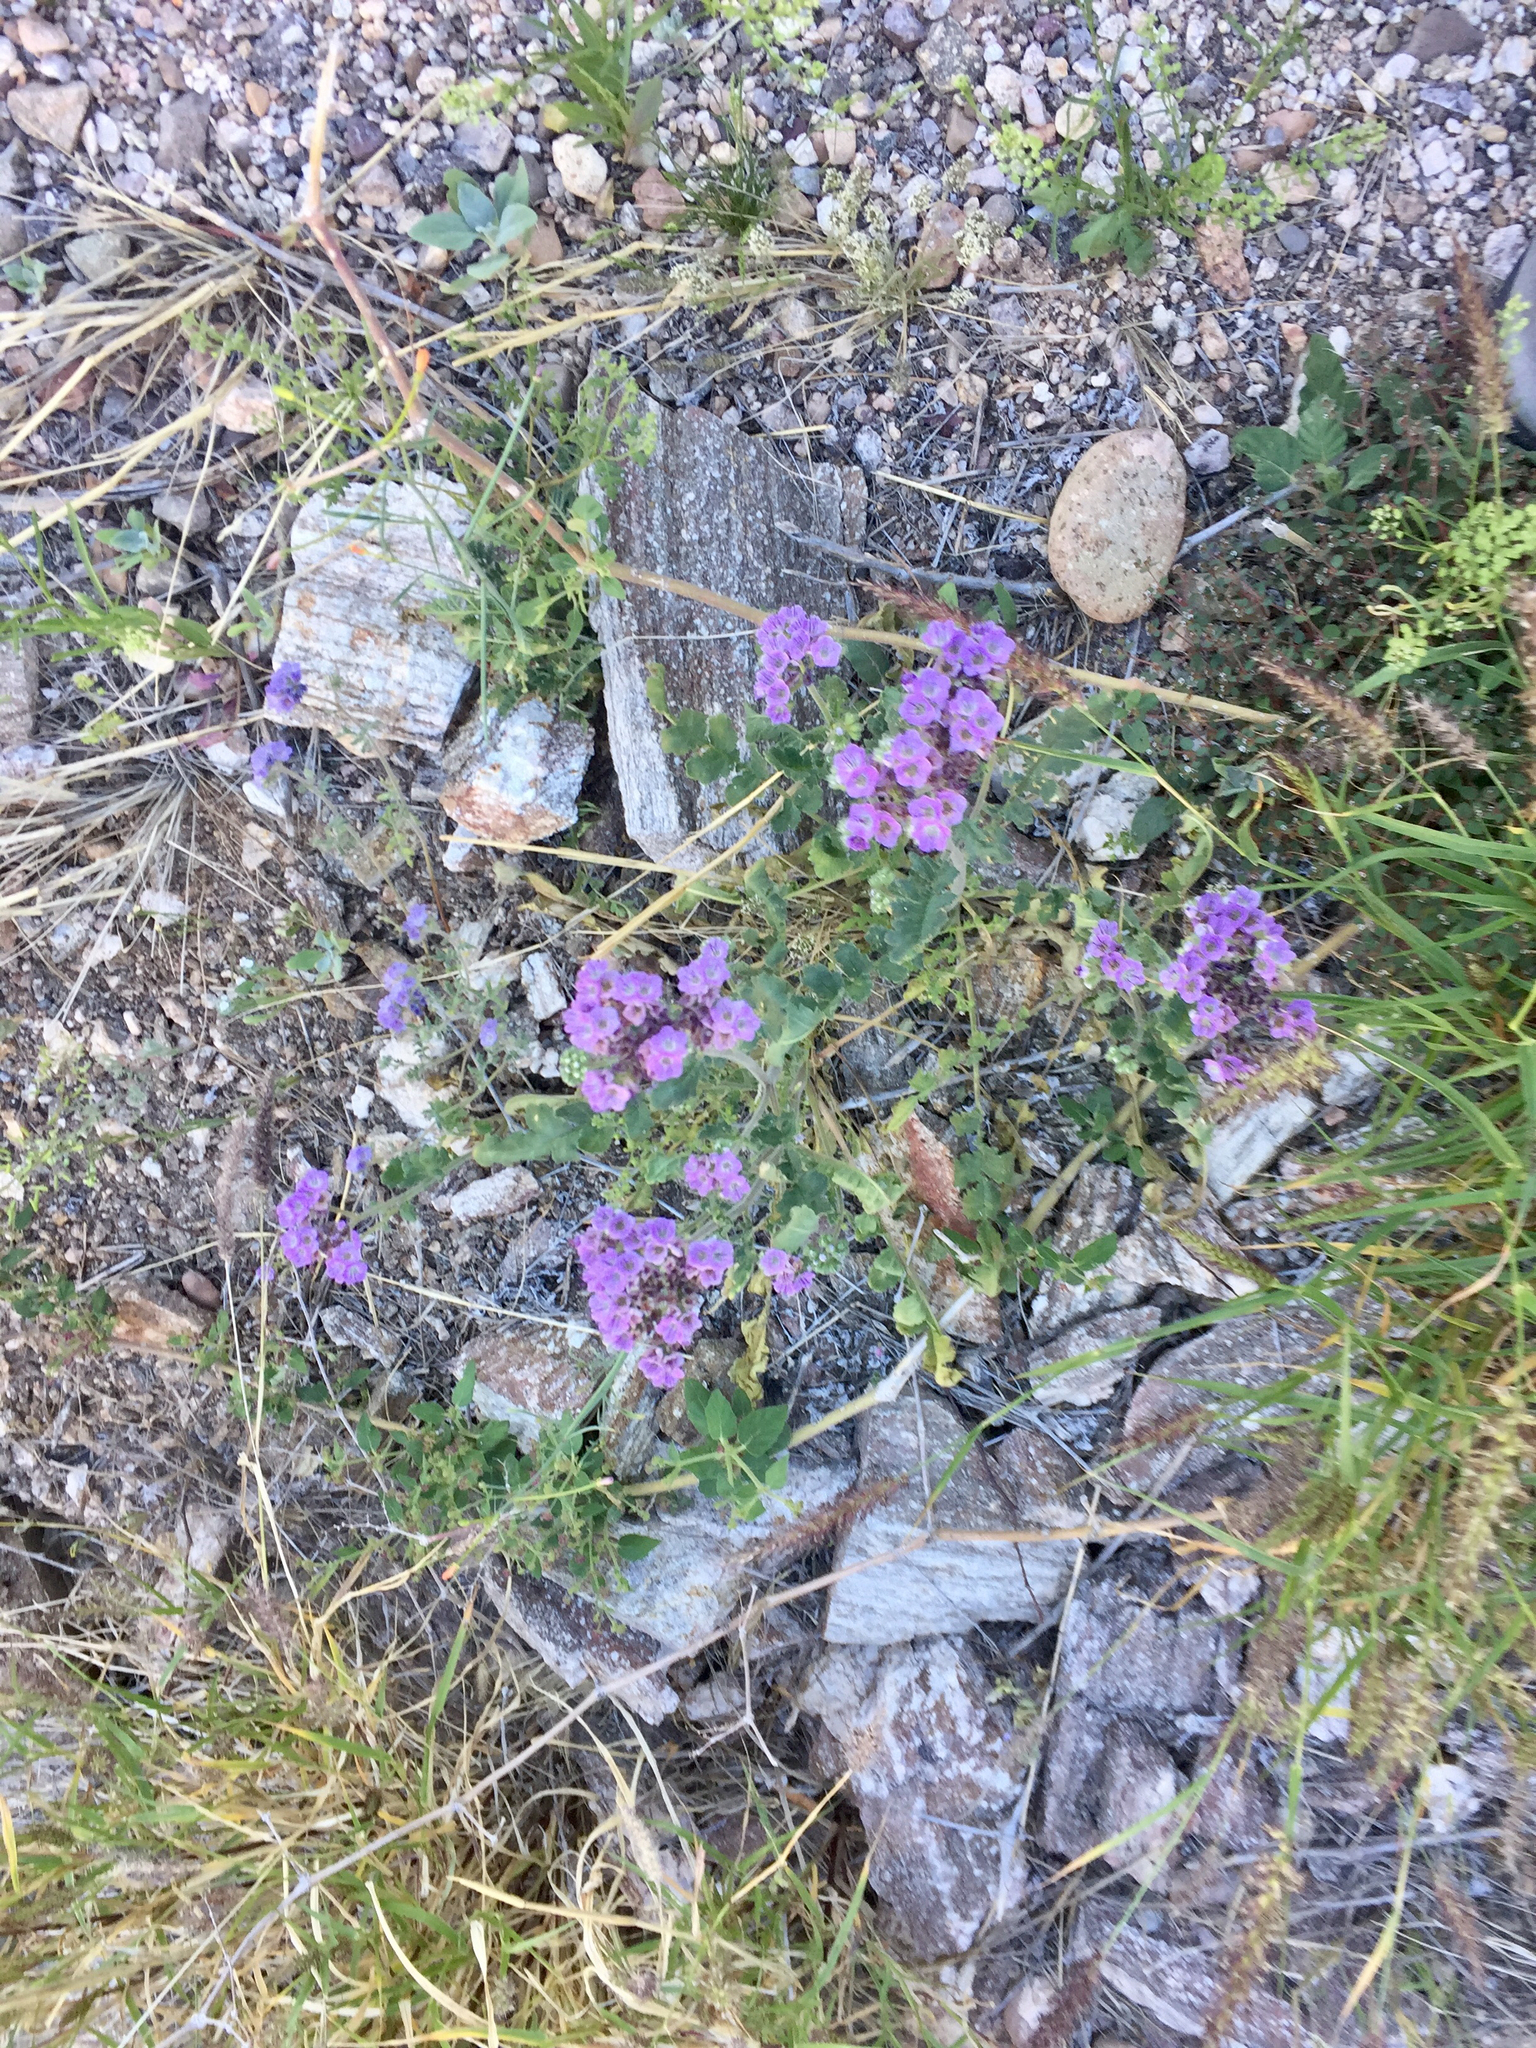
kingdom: Plantae
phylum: Tracheophyta
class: Magnoliopsida
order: Boraginales
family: Hydrophyllaceae
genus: Phacelia
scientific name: Phacelia crenulata
